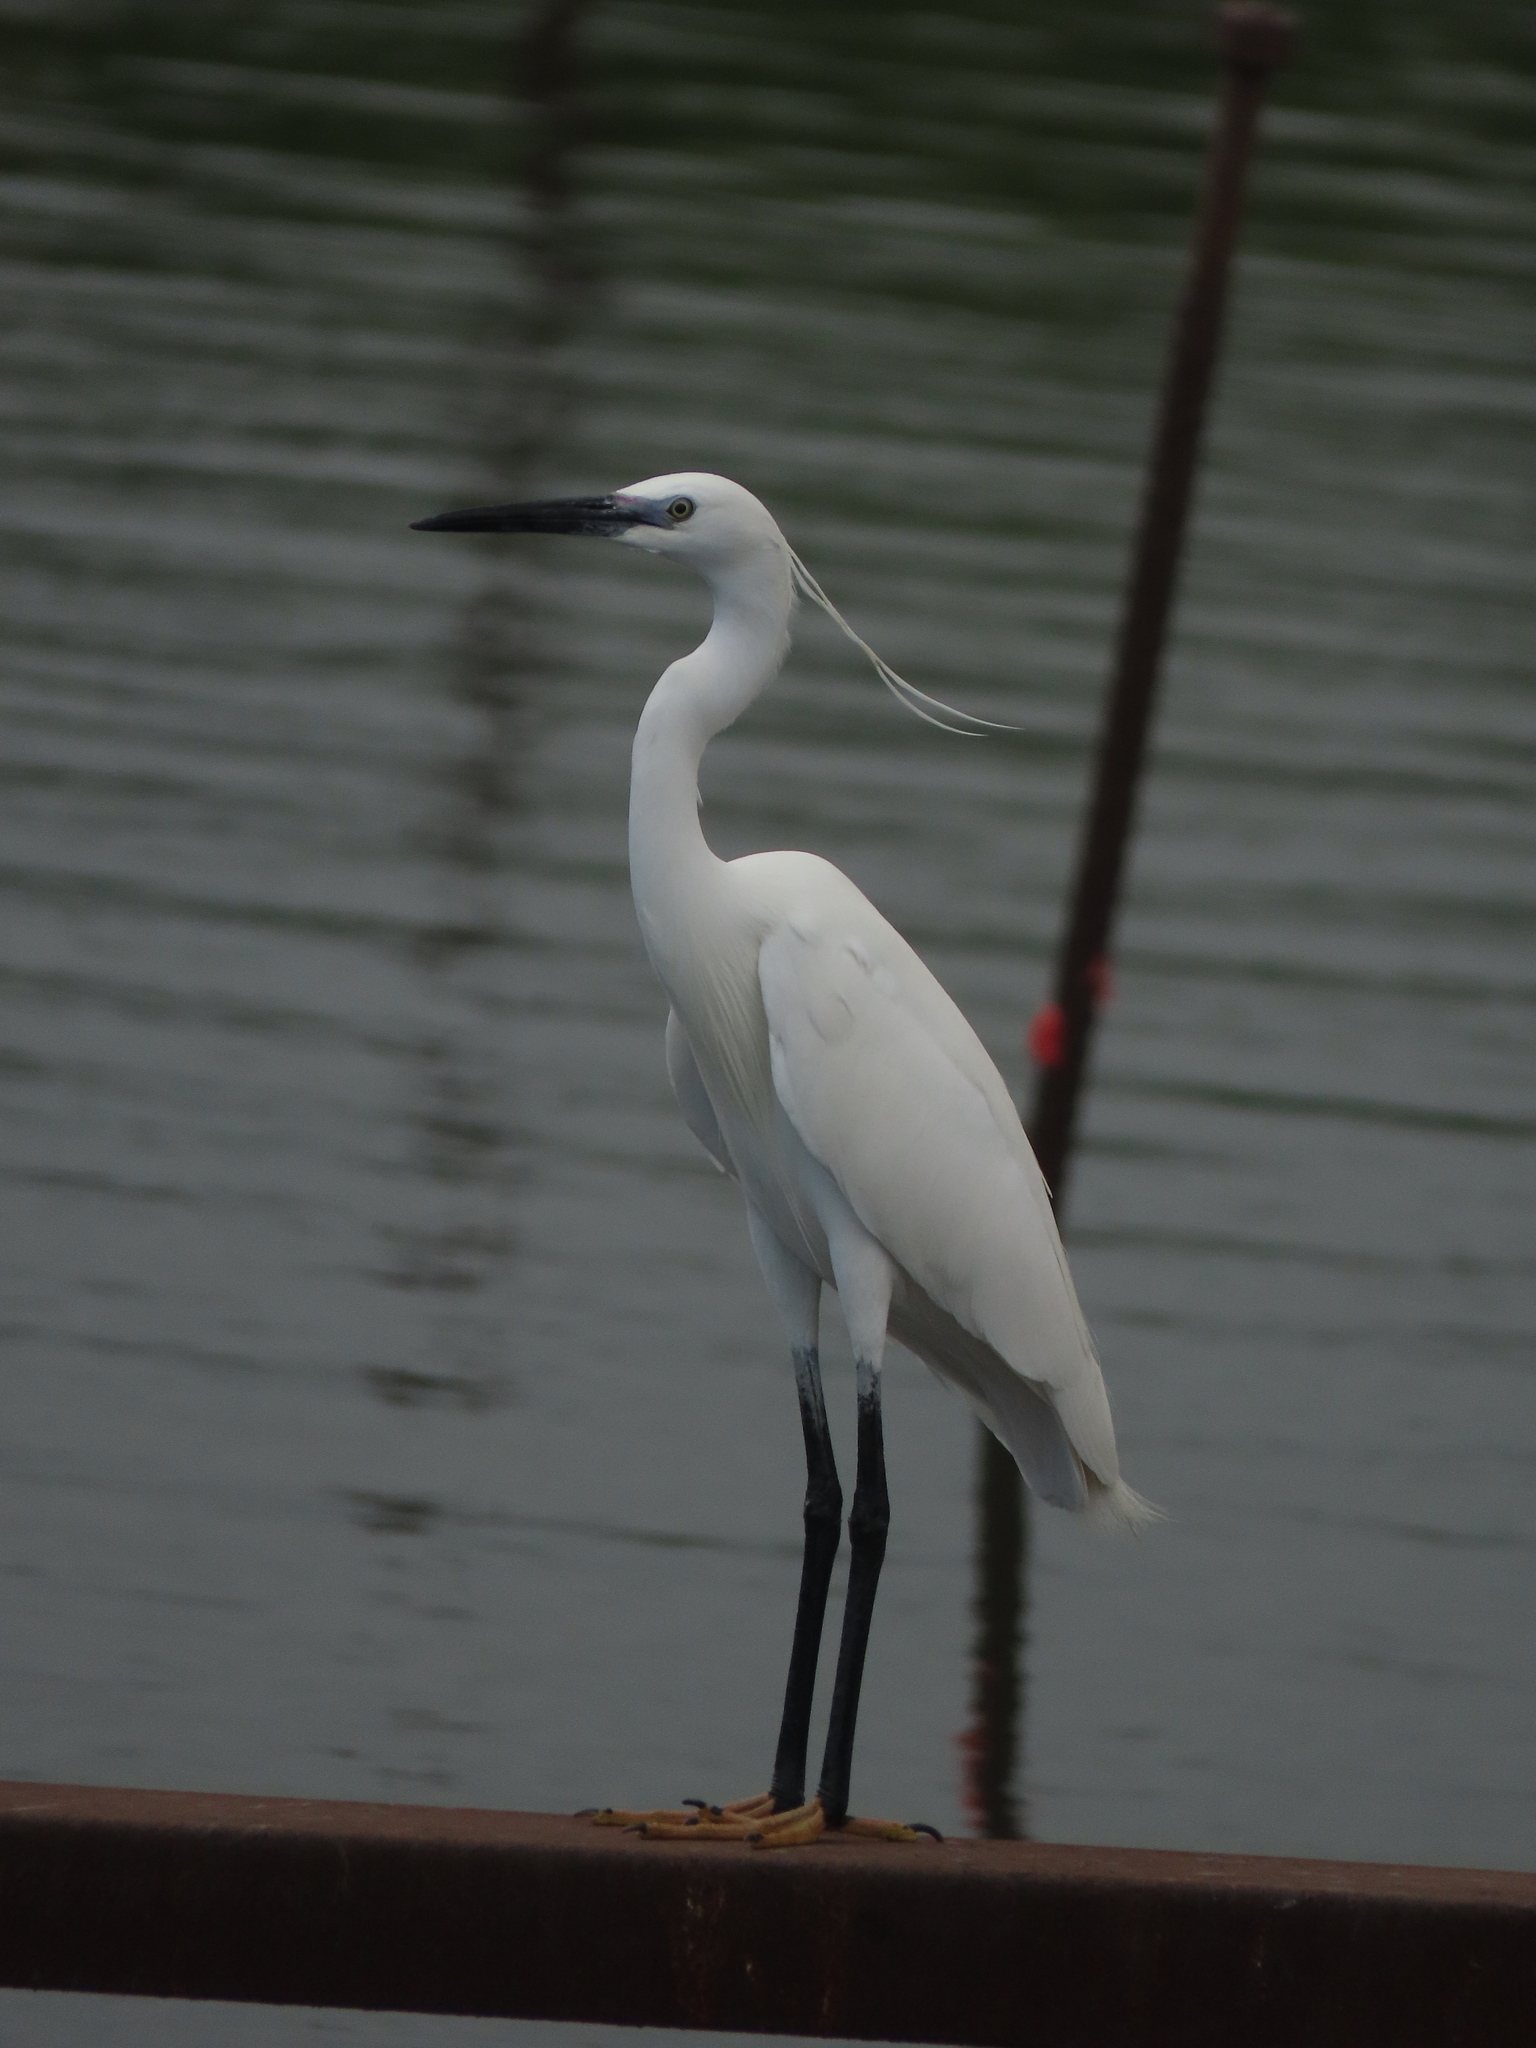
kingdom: Animalia
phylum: Chordata
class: Aves
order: Pelecaniformes
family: Ardeidae
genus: Egretta
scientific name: Egretta garzetta
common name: Little egret
